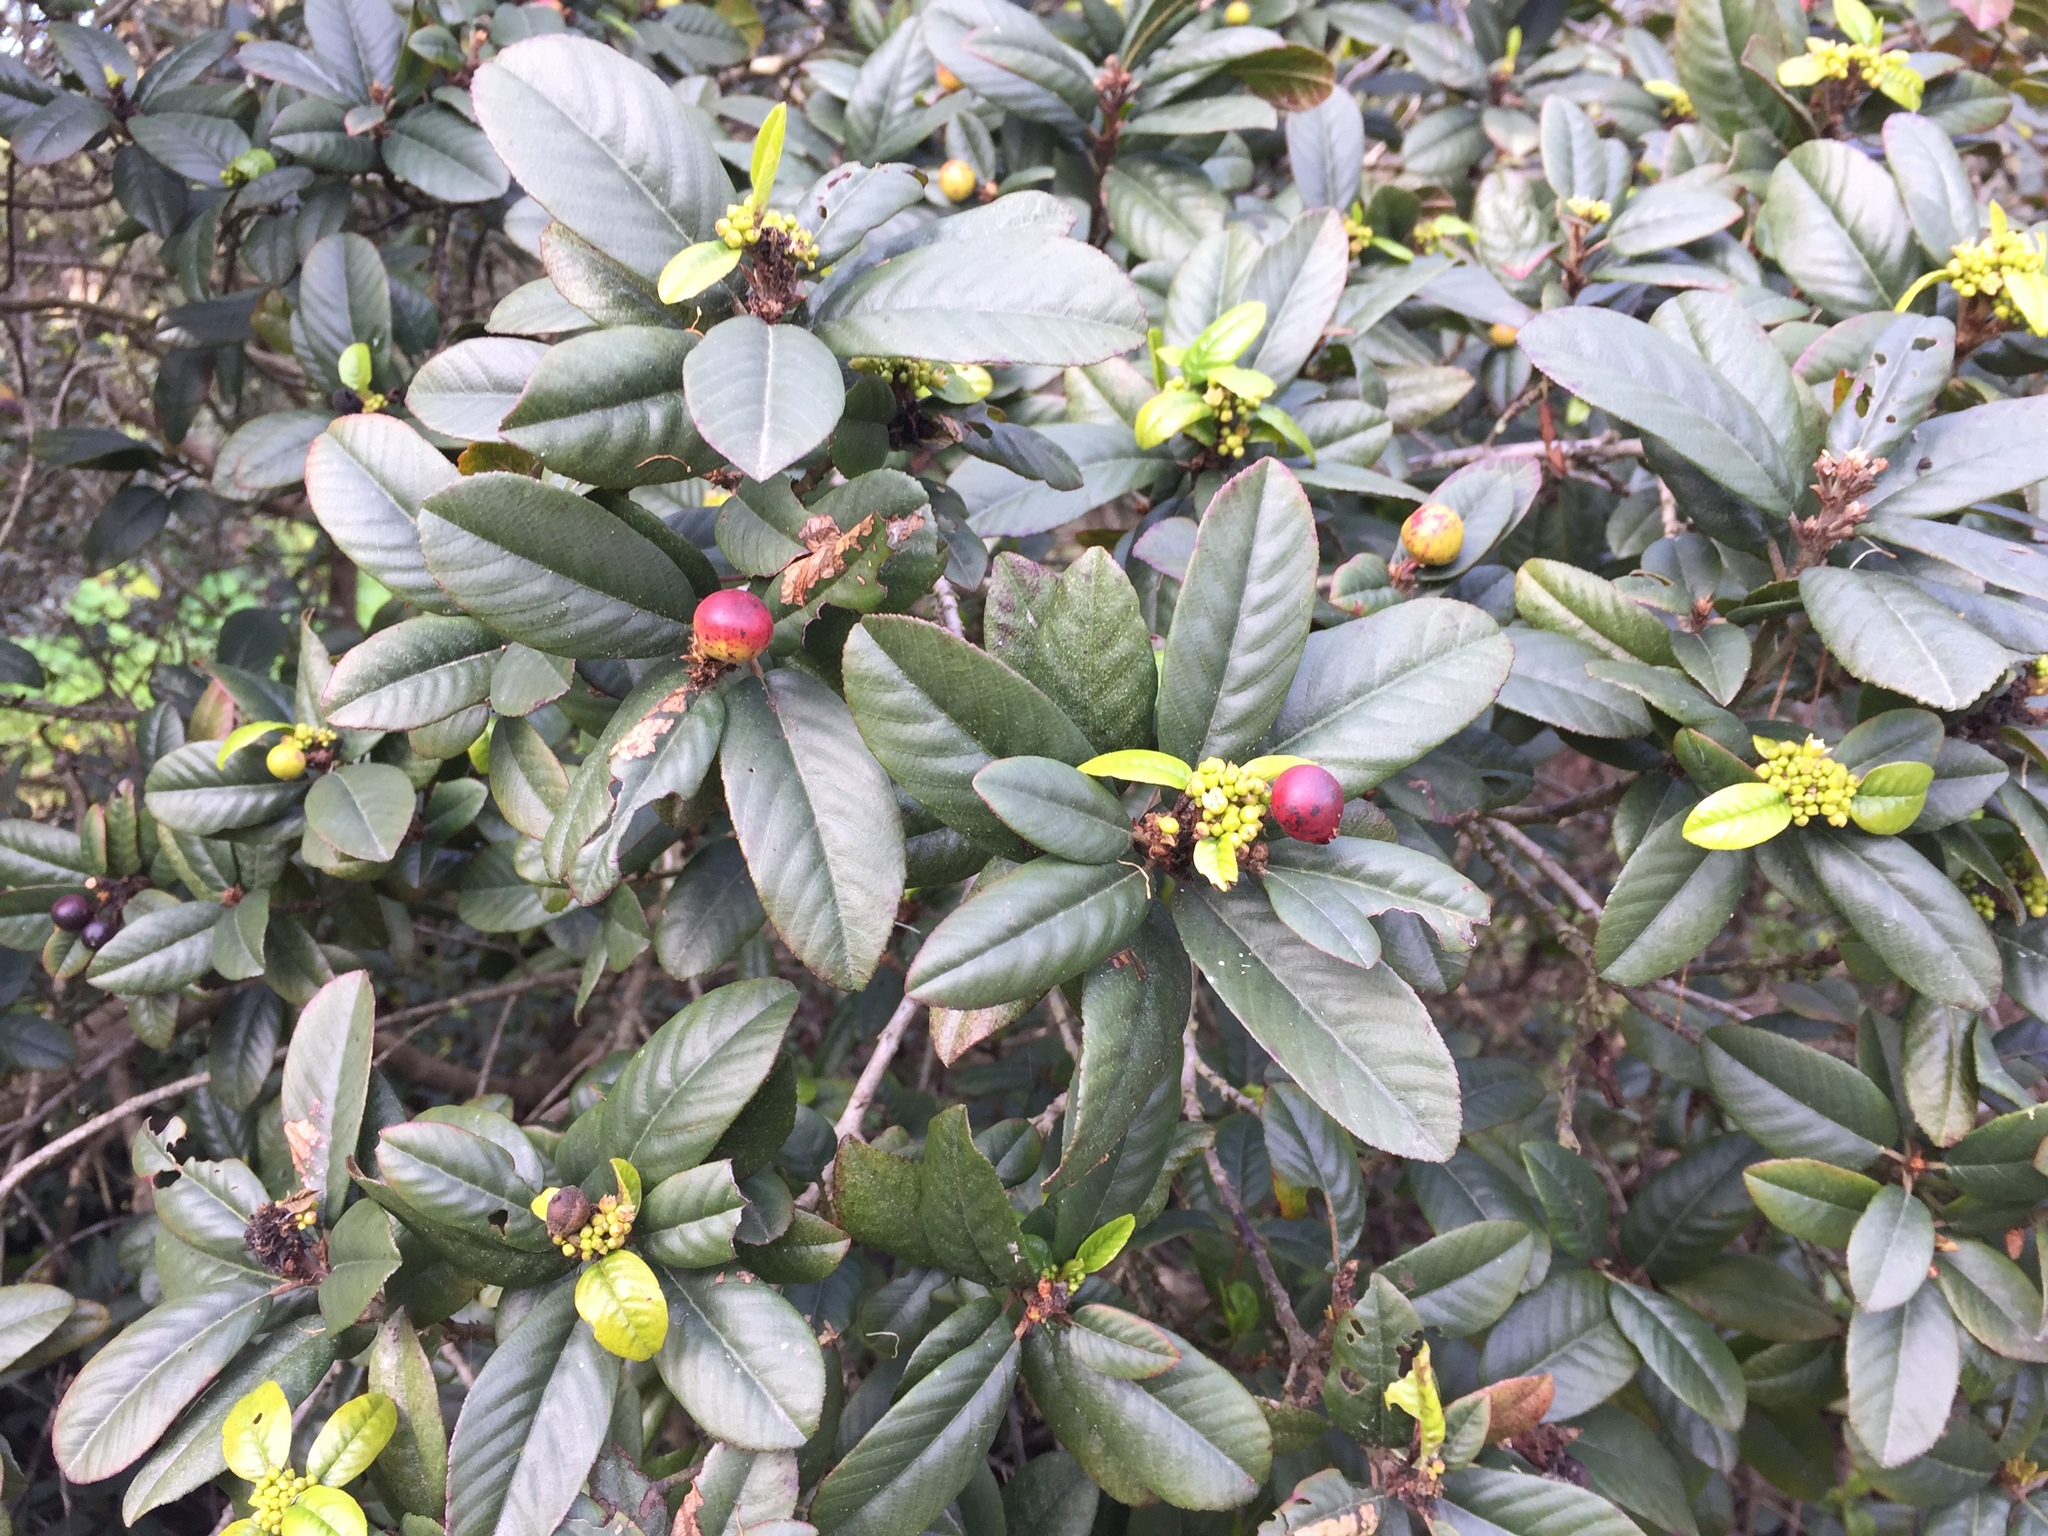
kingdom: Plantae
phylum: Tracheophyta
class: Magnoliopsida
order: Rosales
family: Rhamnaceae
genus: Frangula
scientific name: Frangula californica
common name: California buckthorn
